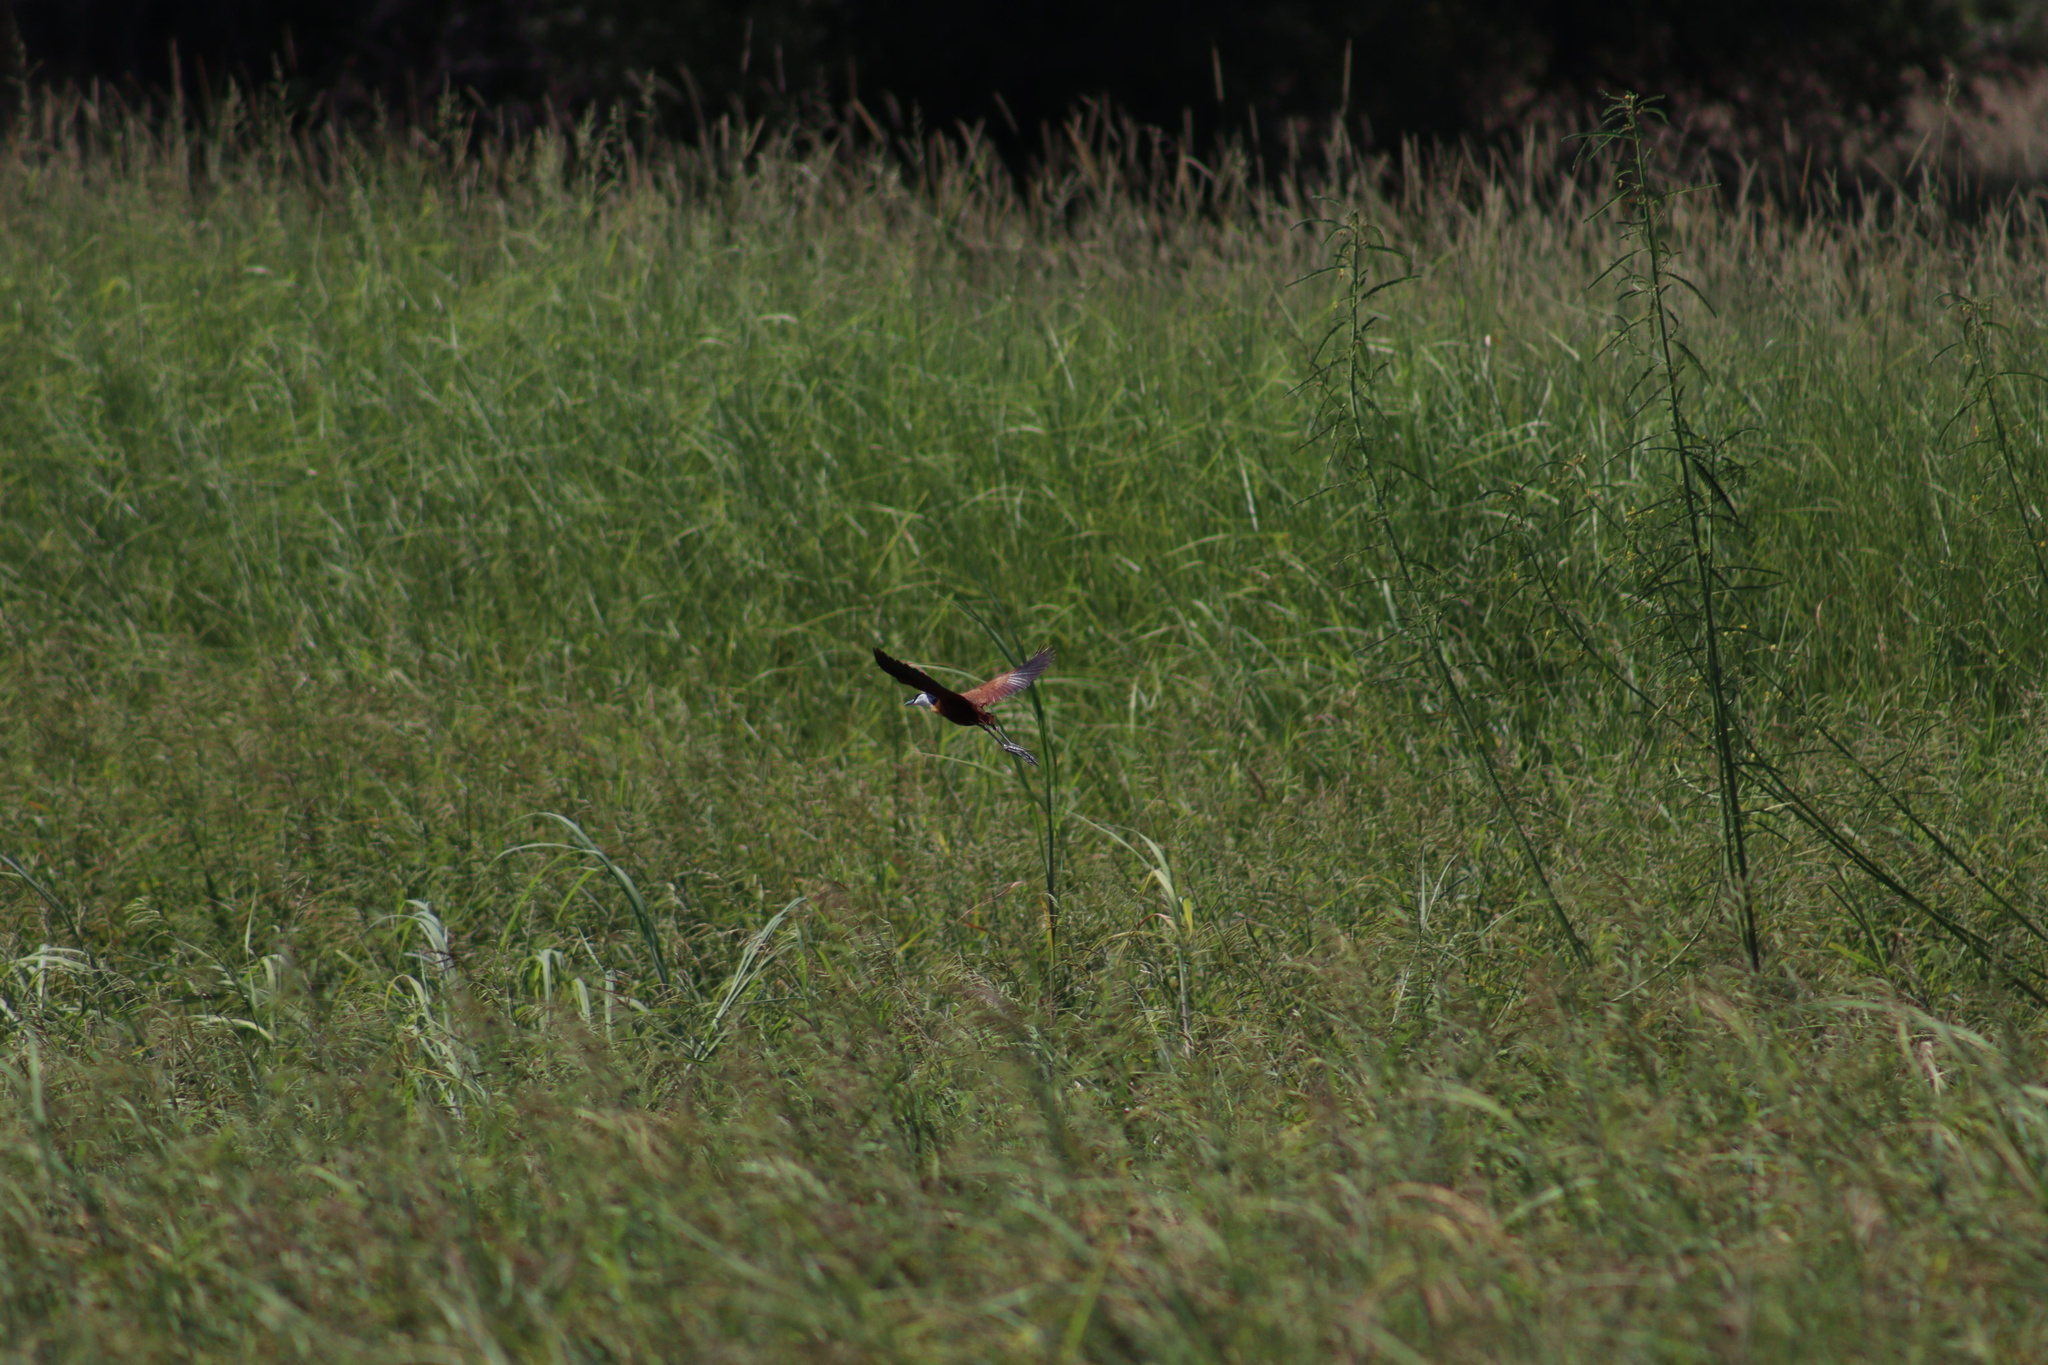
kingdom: Animalia
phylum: Chordata
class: Aves
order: Charadriiformes
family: Jacanidae
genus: Actophilornis
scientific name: Actophilornis africanus
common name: African jacana
